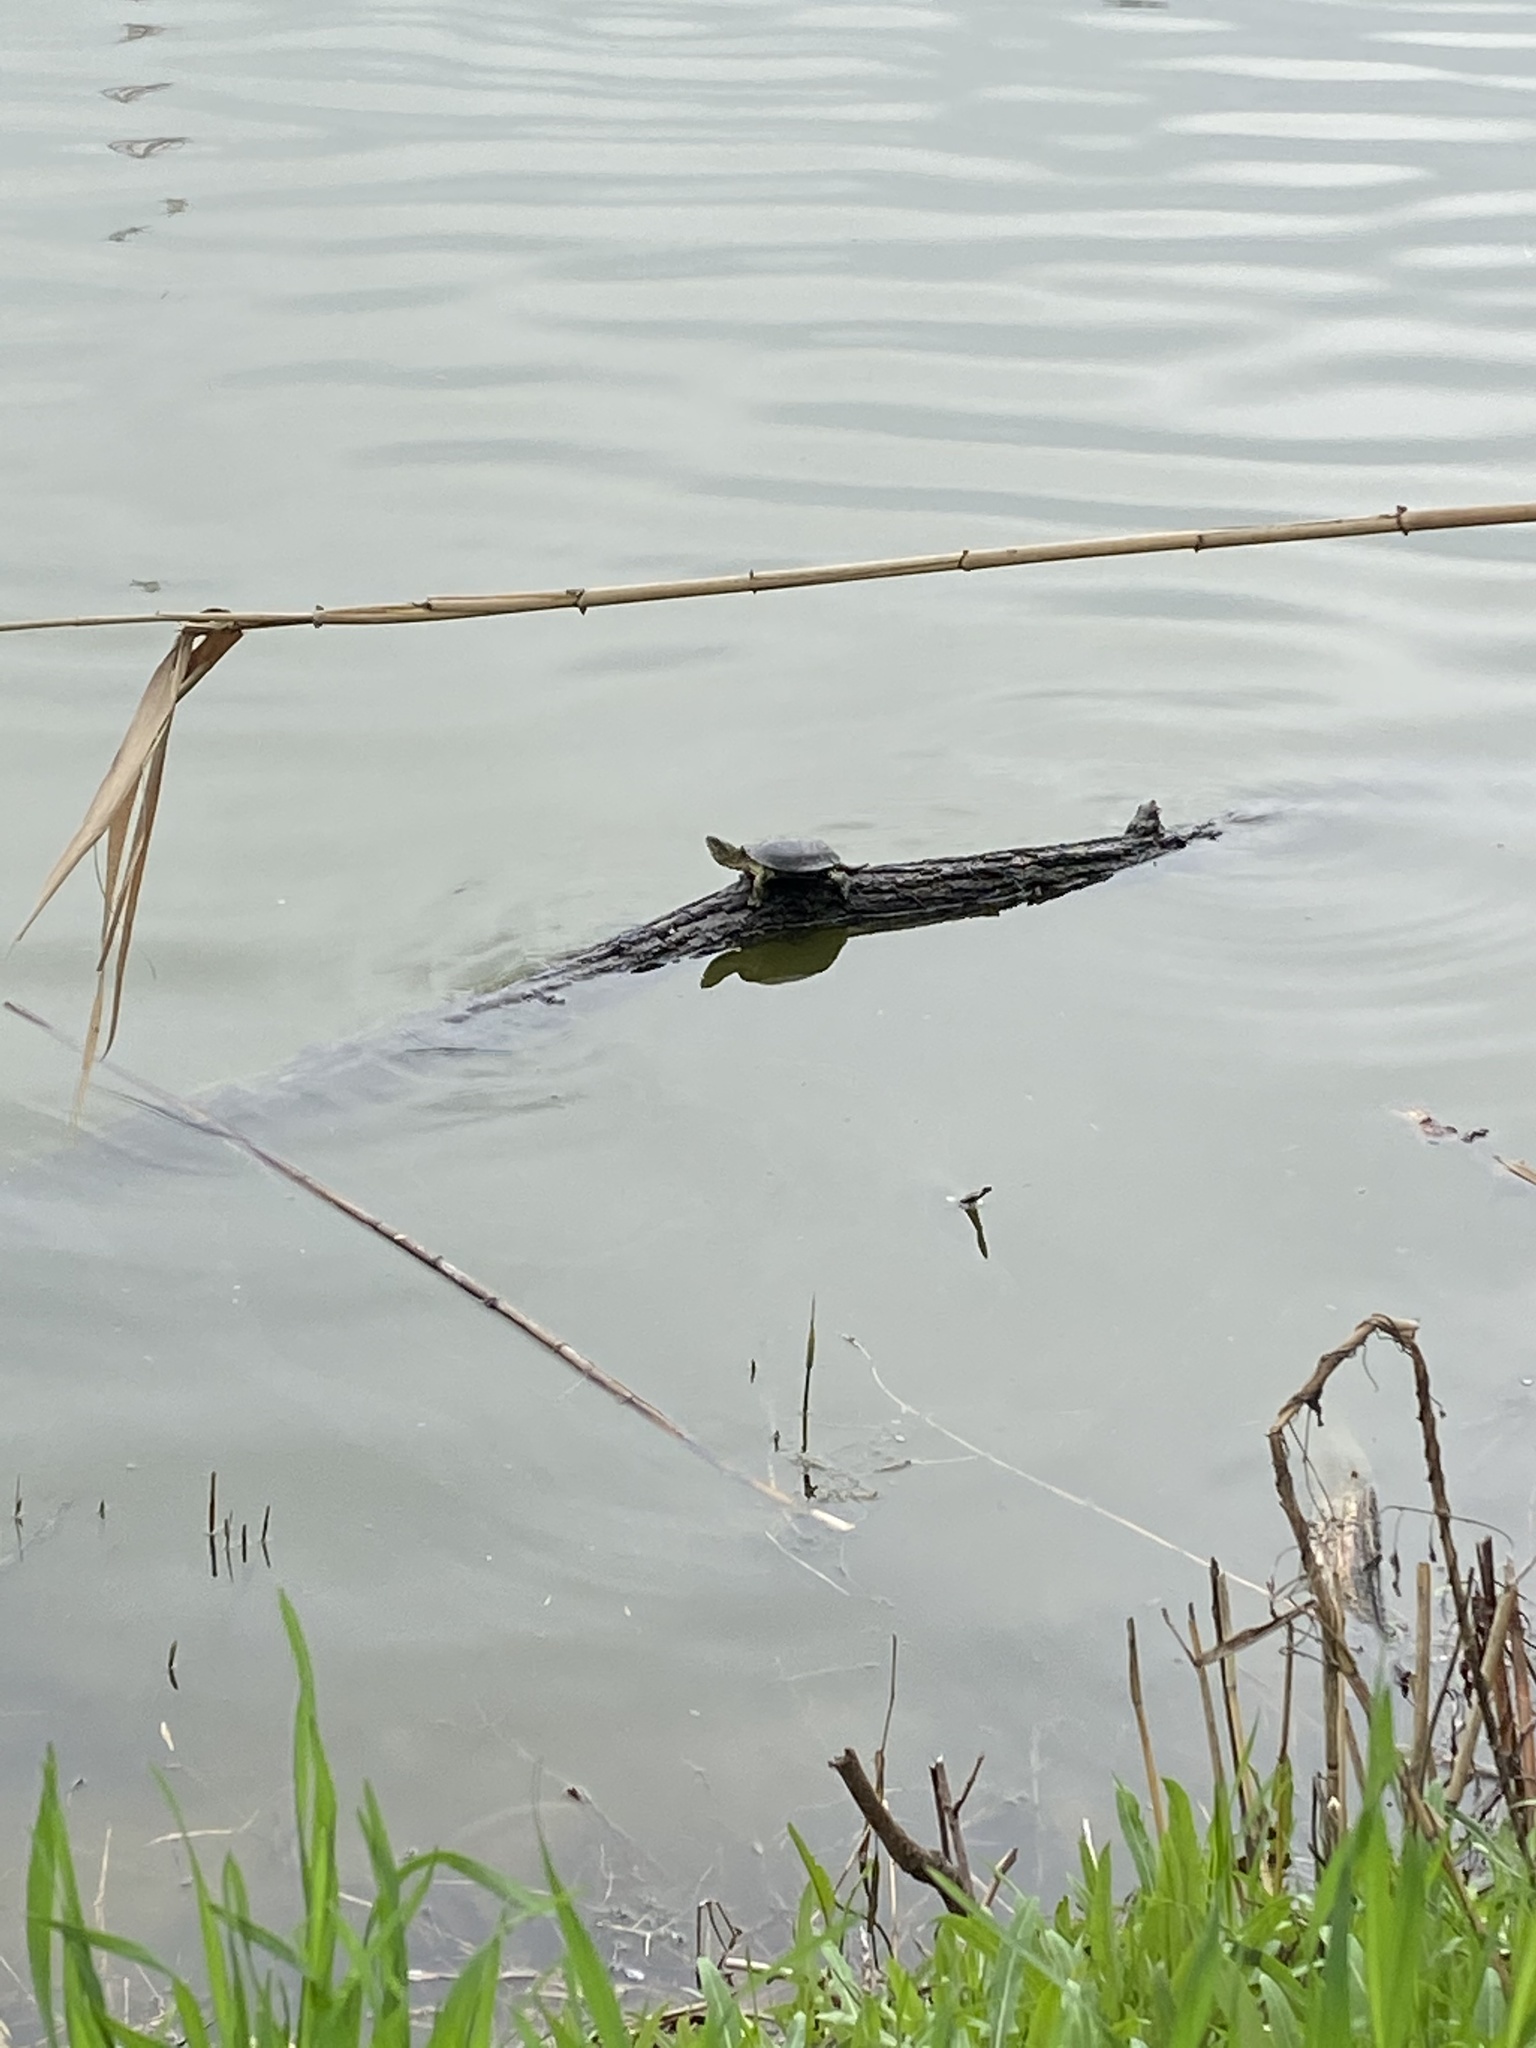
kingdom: Animalia
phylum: Chordata
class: Testudines
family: Emydidae
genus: Emys
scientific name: Emys orbicularis
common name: European pond turtle
